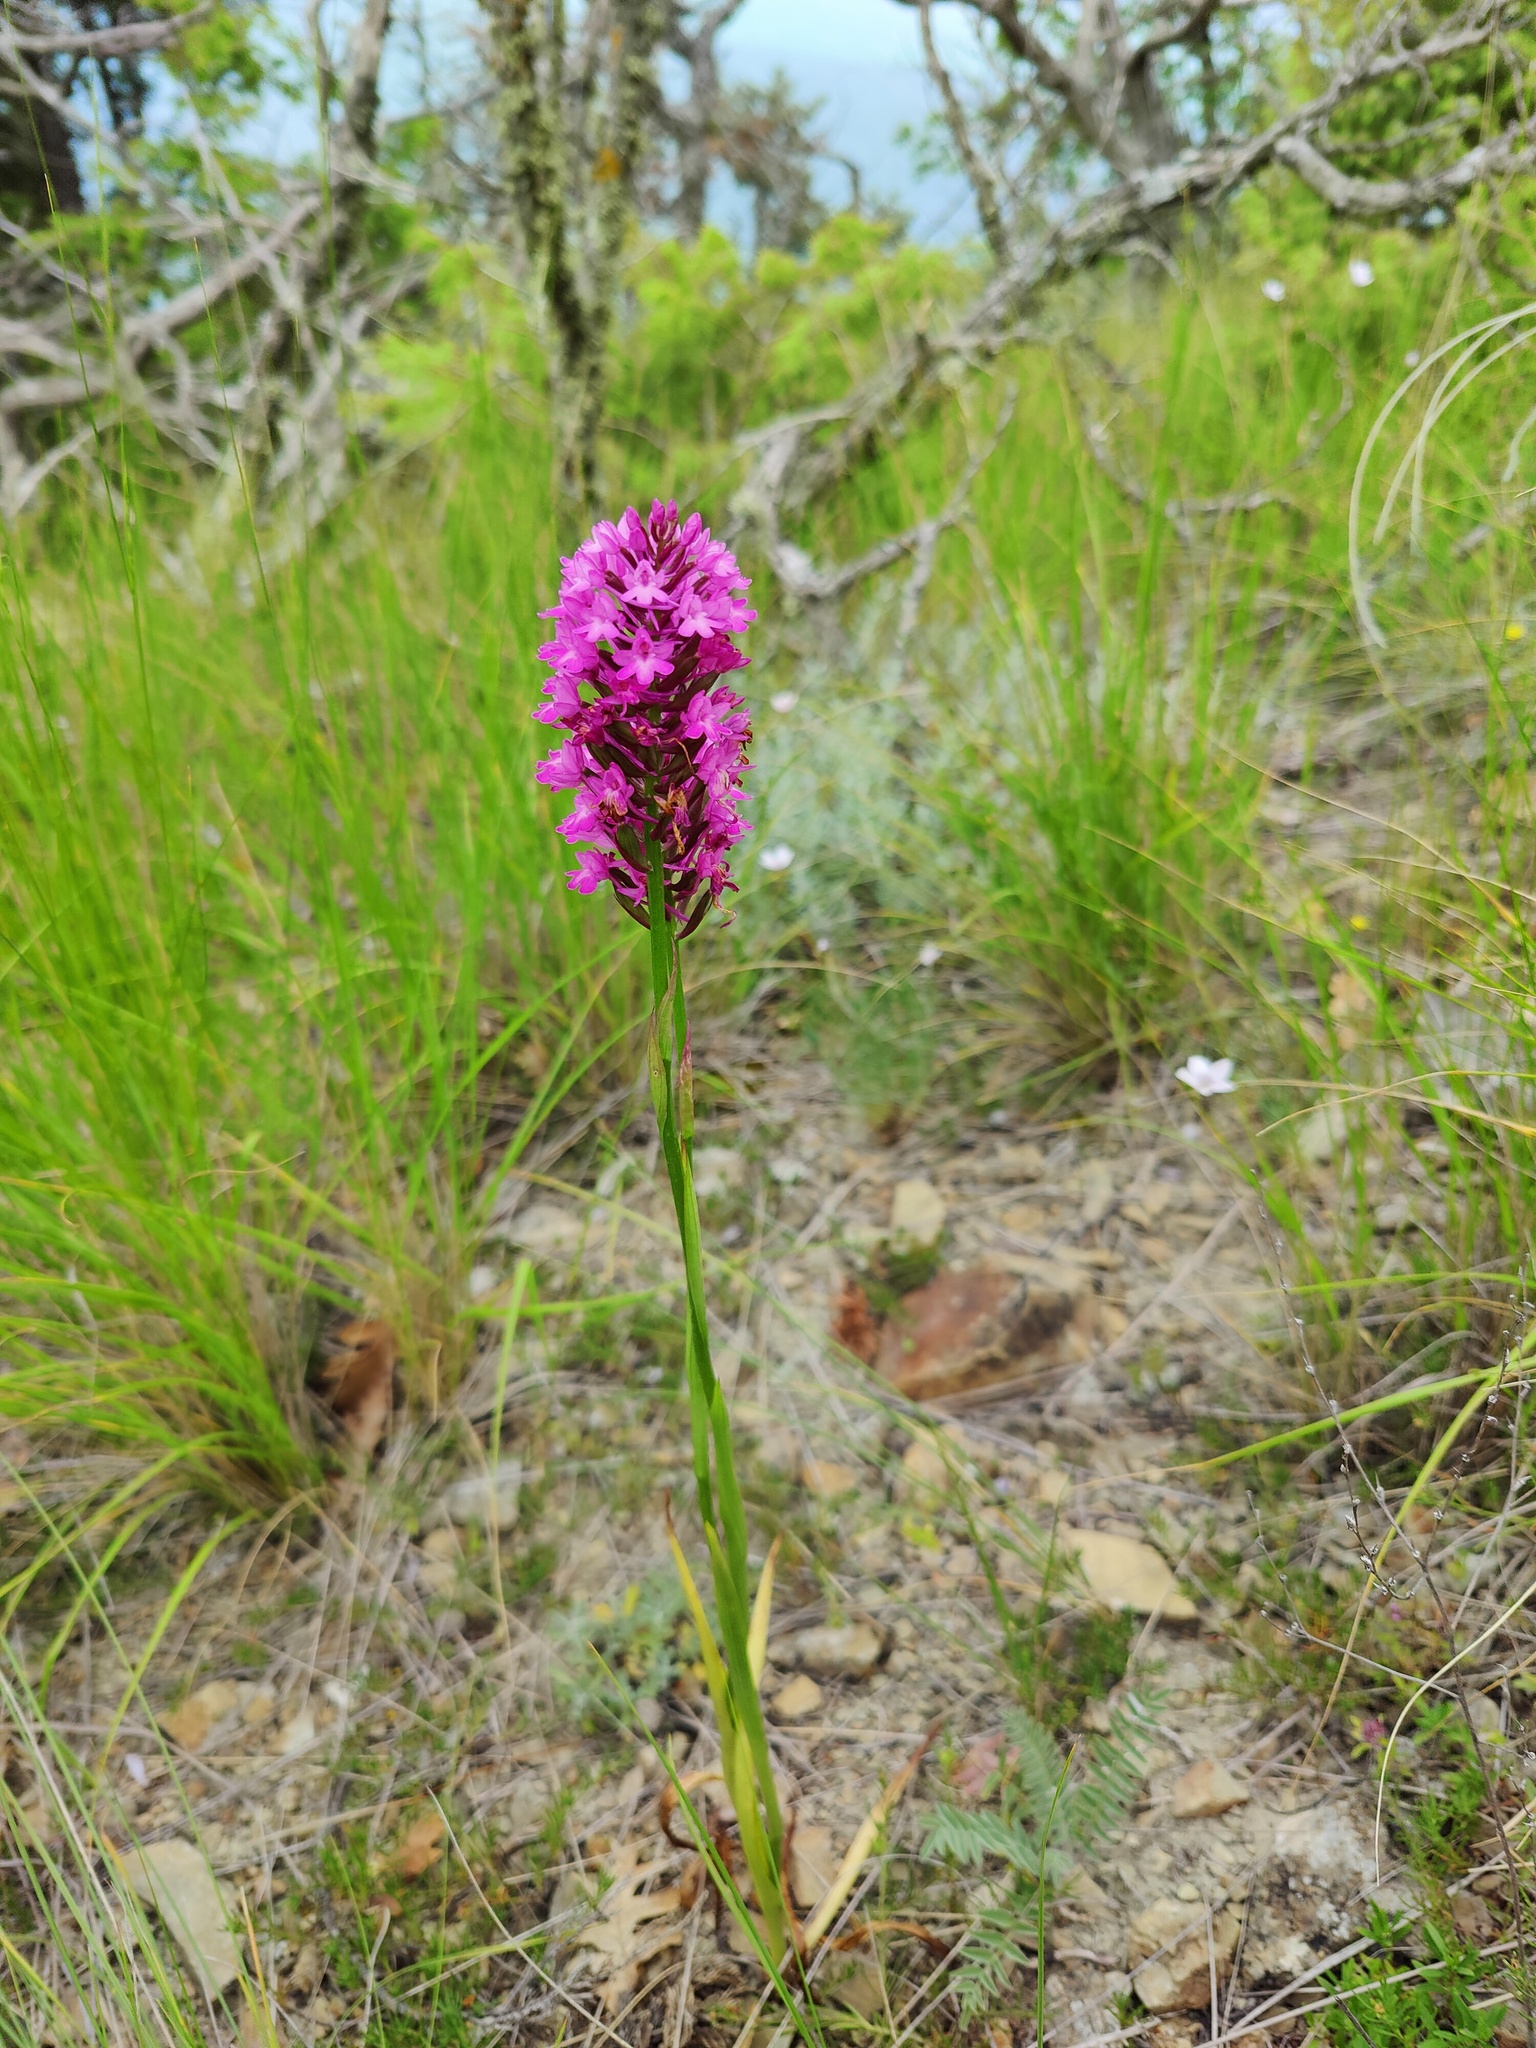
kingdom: Plantae
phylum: Tracheophyta
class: Liliopsida
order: Asparagales
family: Orchidaceae
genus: Anacamptis
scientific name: Anacamptis pyramidalis
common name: Pyramidal orchid
